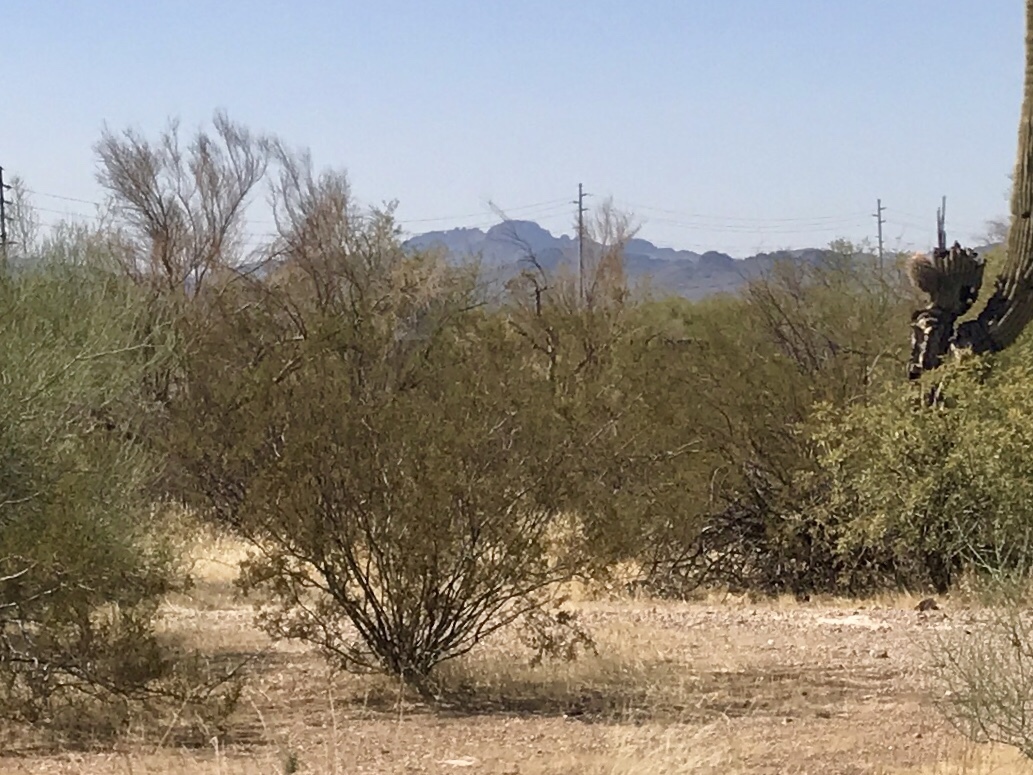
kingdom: Plantae
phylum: Tracheophyta
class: Magnoliopsida
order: Zygophyllales
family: Zygophyllaceae
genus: Larrea
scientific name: Larrea tridentata
